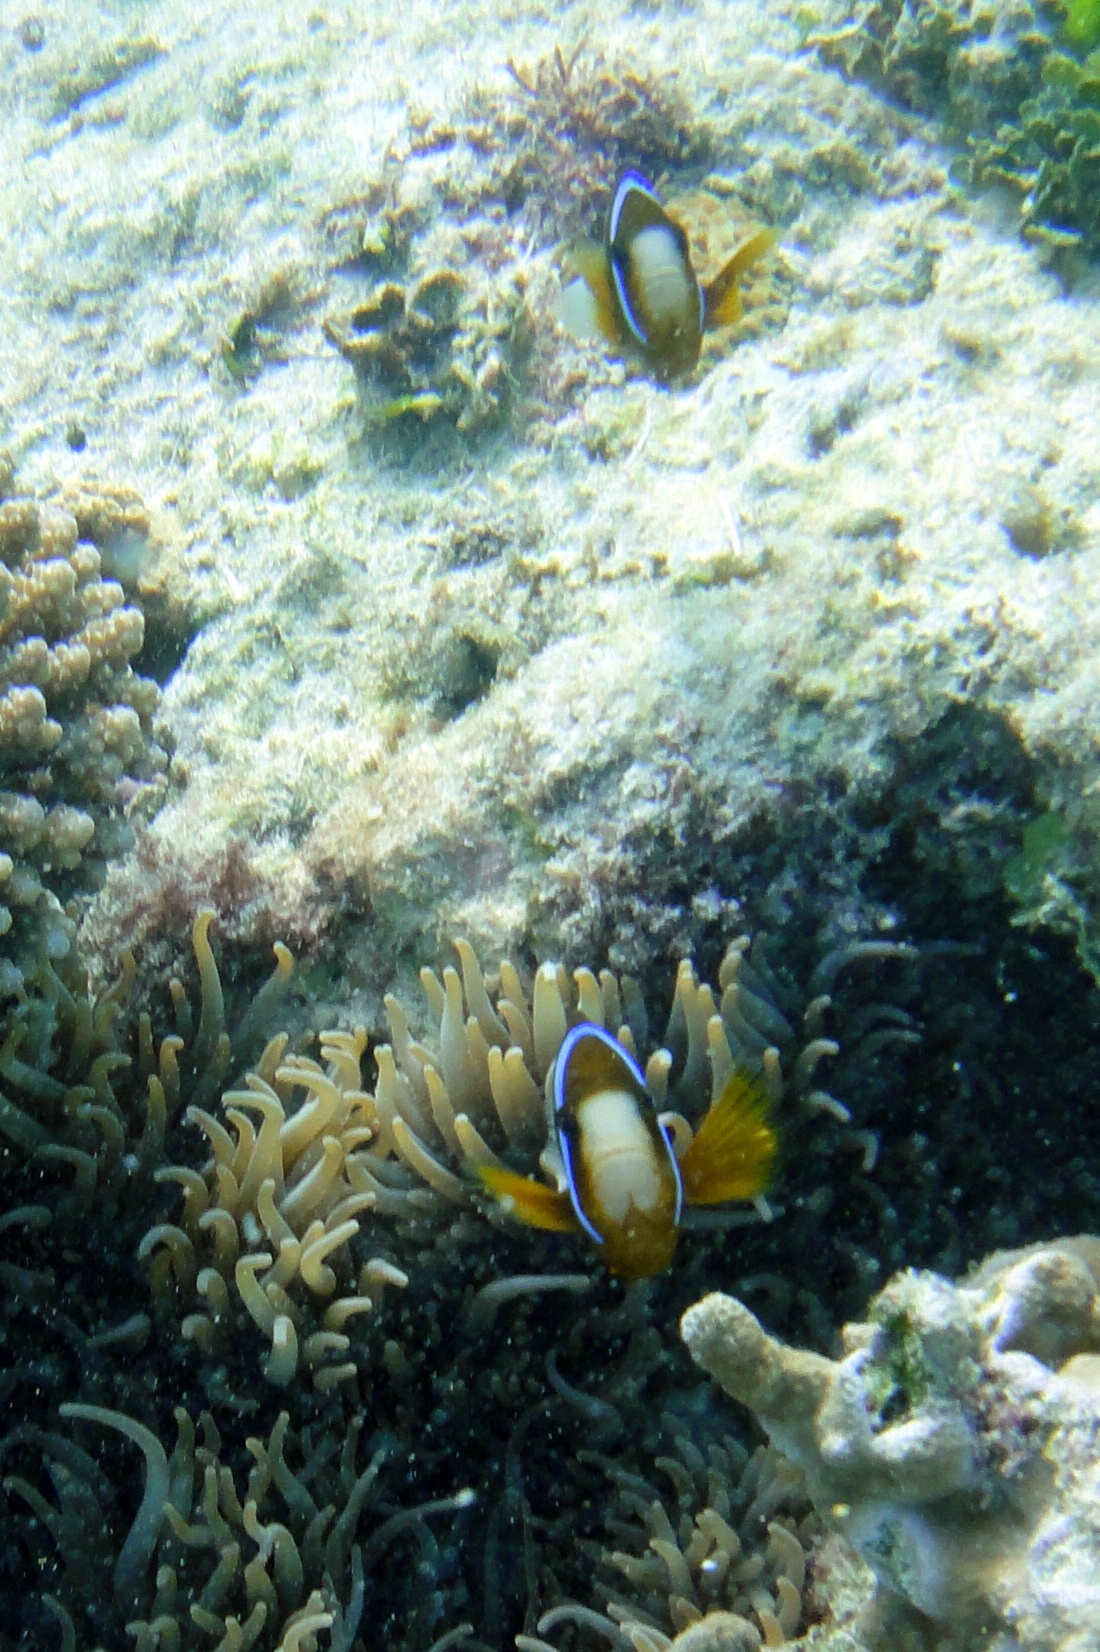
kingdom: Animalia
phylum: Chordata
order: Perciformes
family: Pomacentridae
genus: Amphiprion
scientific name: Amphiprion akindynos
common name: Barrier reef anemonefish
